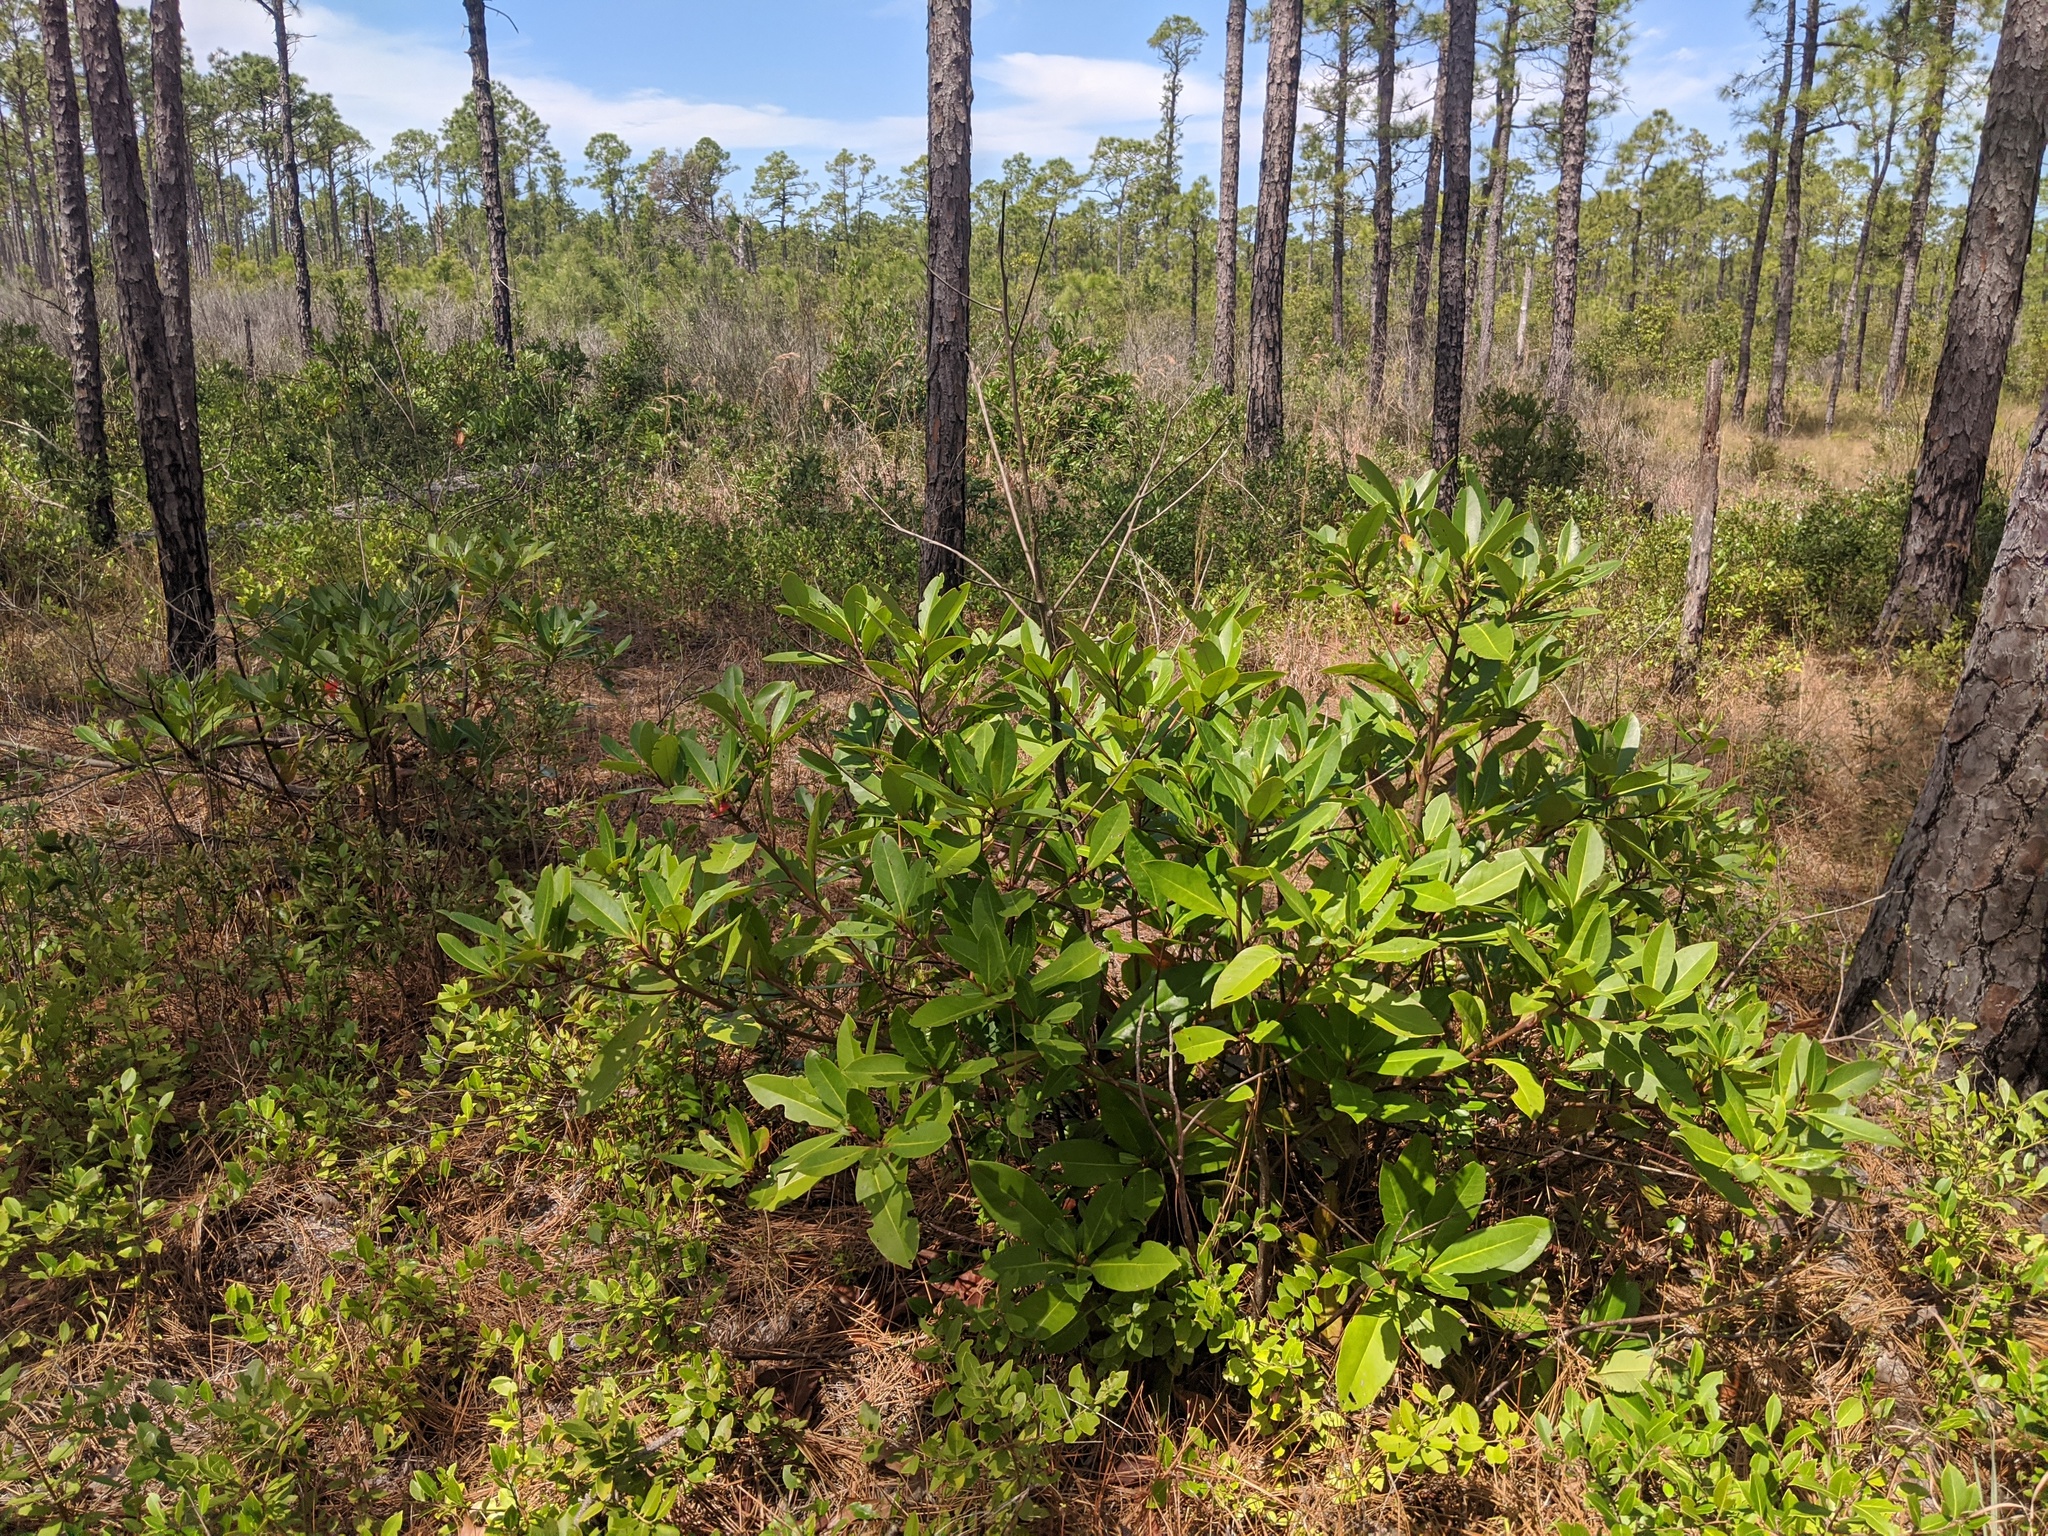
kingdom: Plantae
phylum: Tracheophyta
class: Magnoliopsida
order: Ericales
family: Theaceae
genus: Gordonia
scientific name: Gordonia lasianthus
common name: Loblolly bay
